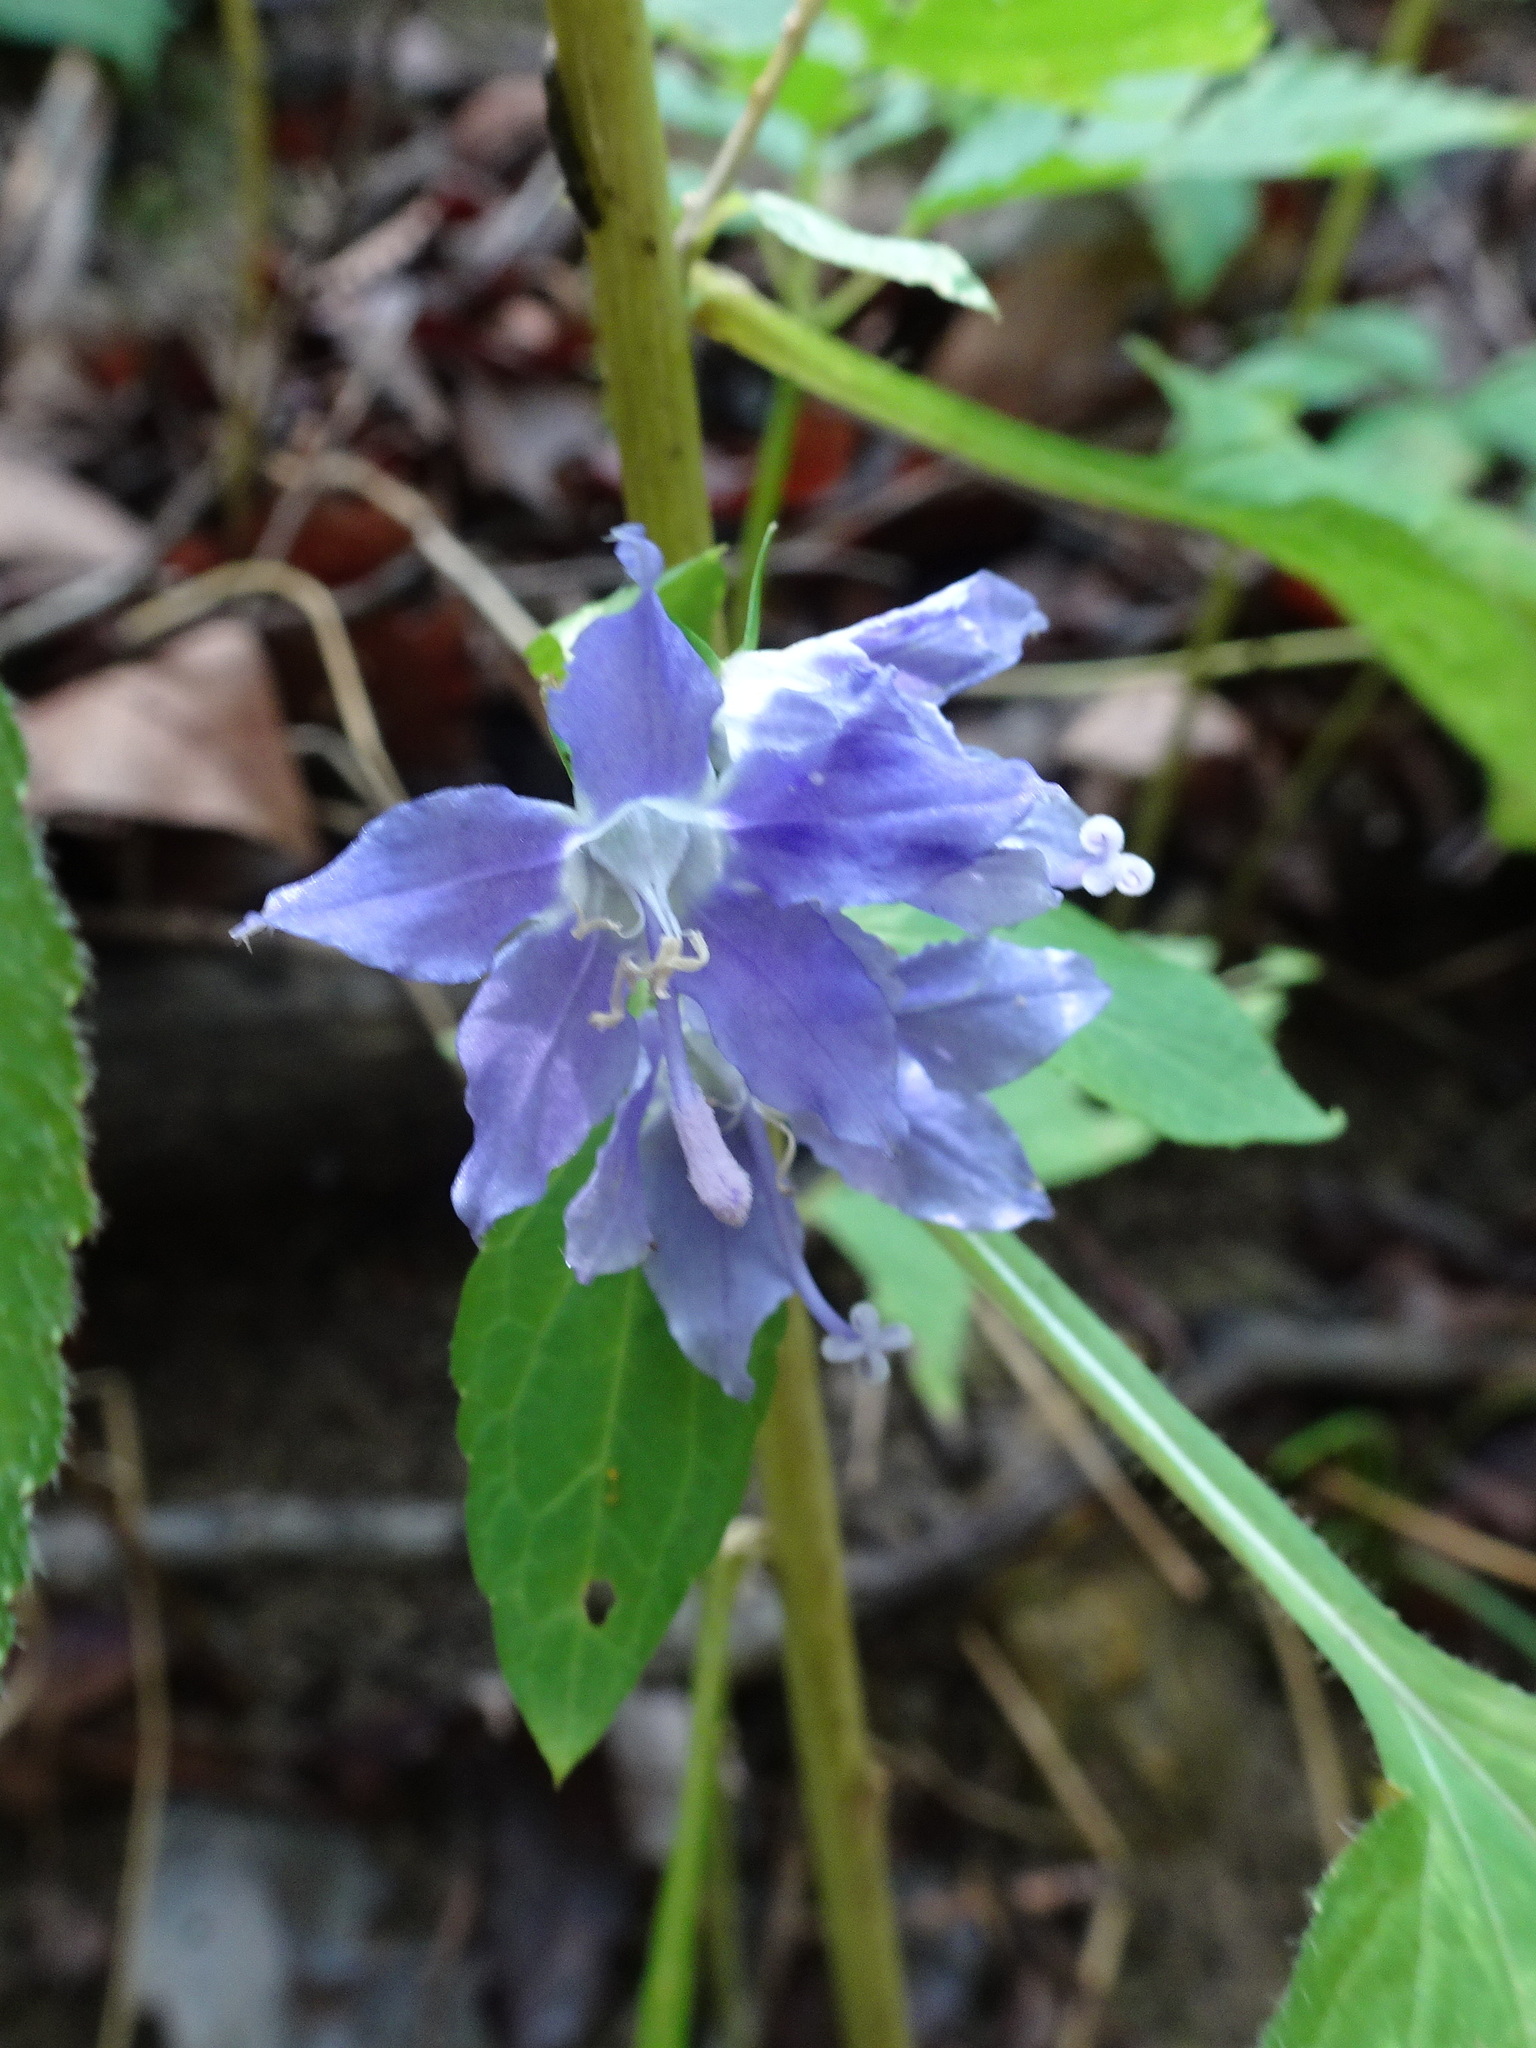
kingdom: Plantae
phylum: Tracheophyta
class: Magnoliopsida
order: Asterales
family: Campanulaceae
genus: Campanulastrum
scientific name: Campanulastrum americanum
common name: American bellflower
